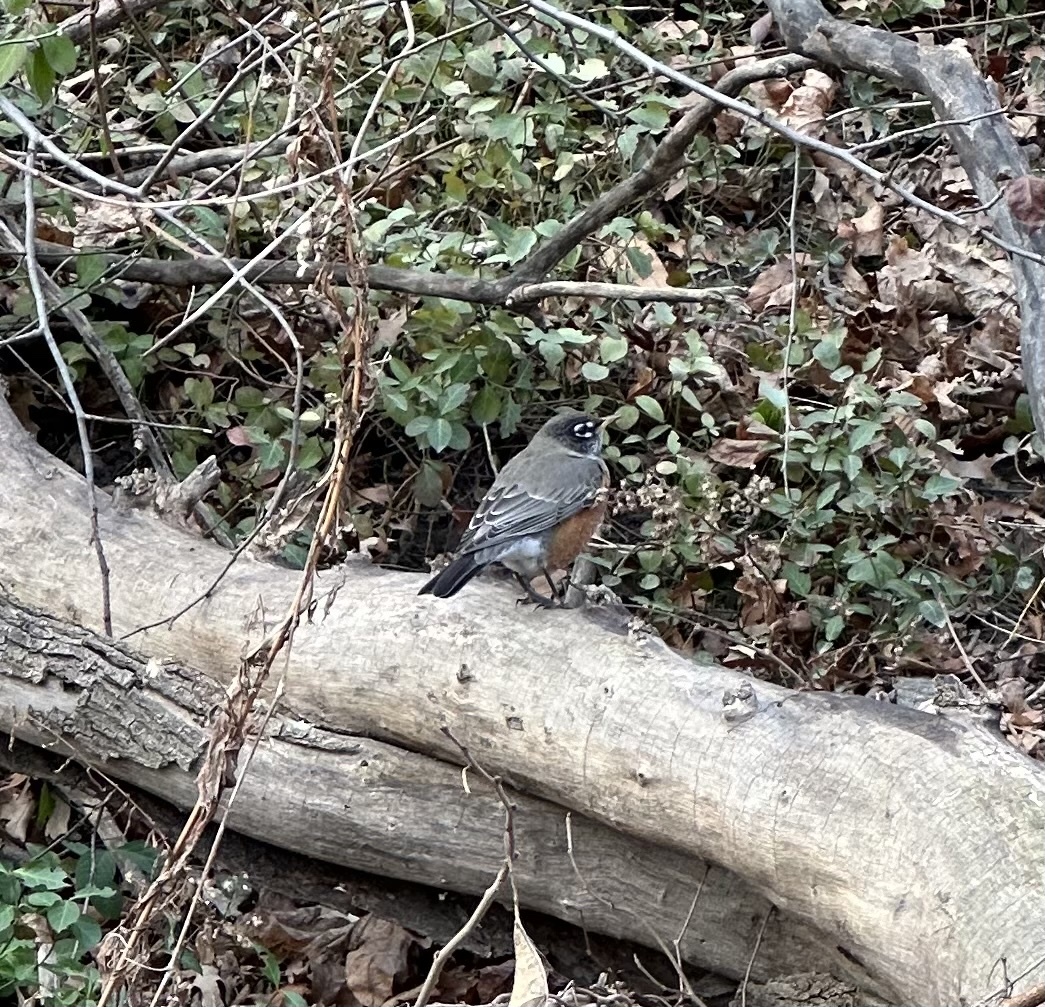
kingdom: Animalia
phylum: Chordata
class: Aves
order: Passeriformes
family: Turdidae
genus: Turdus
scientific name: Turdus migratorius
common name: American robin
